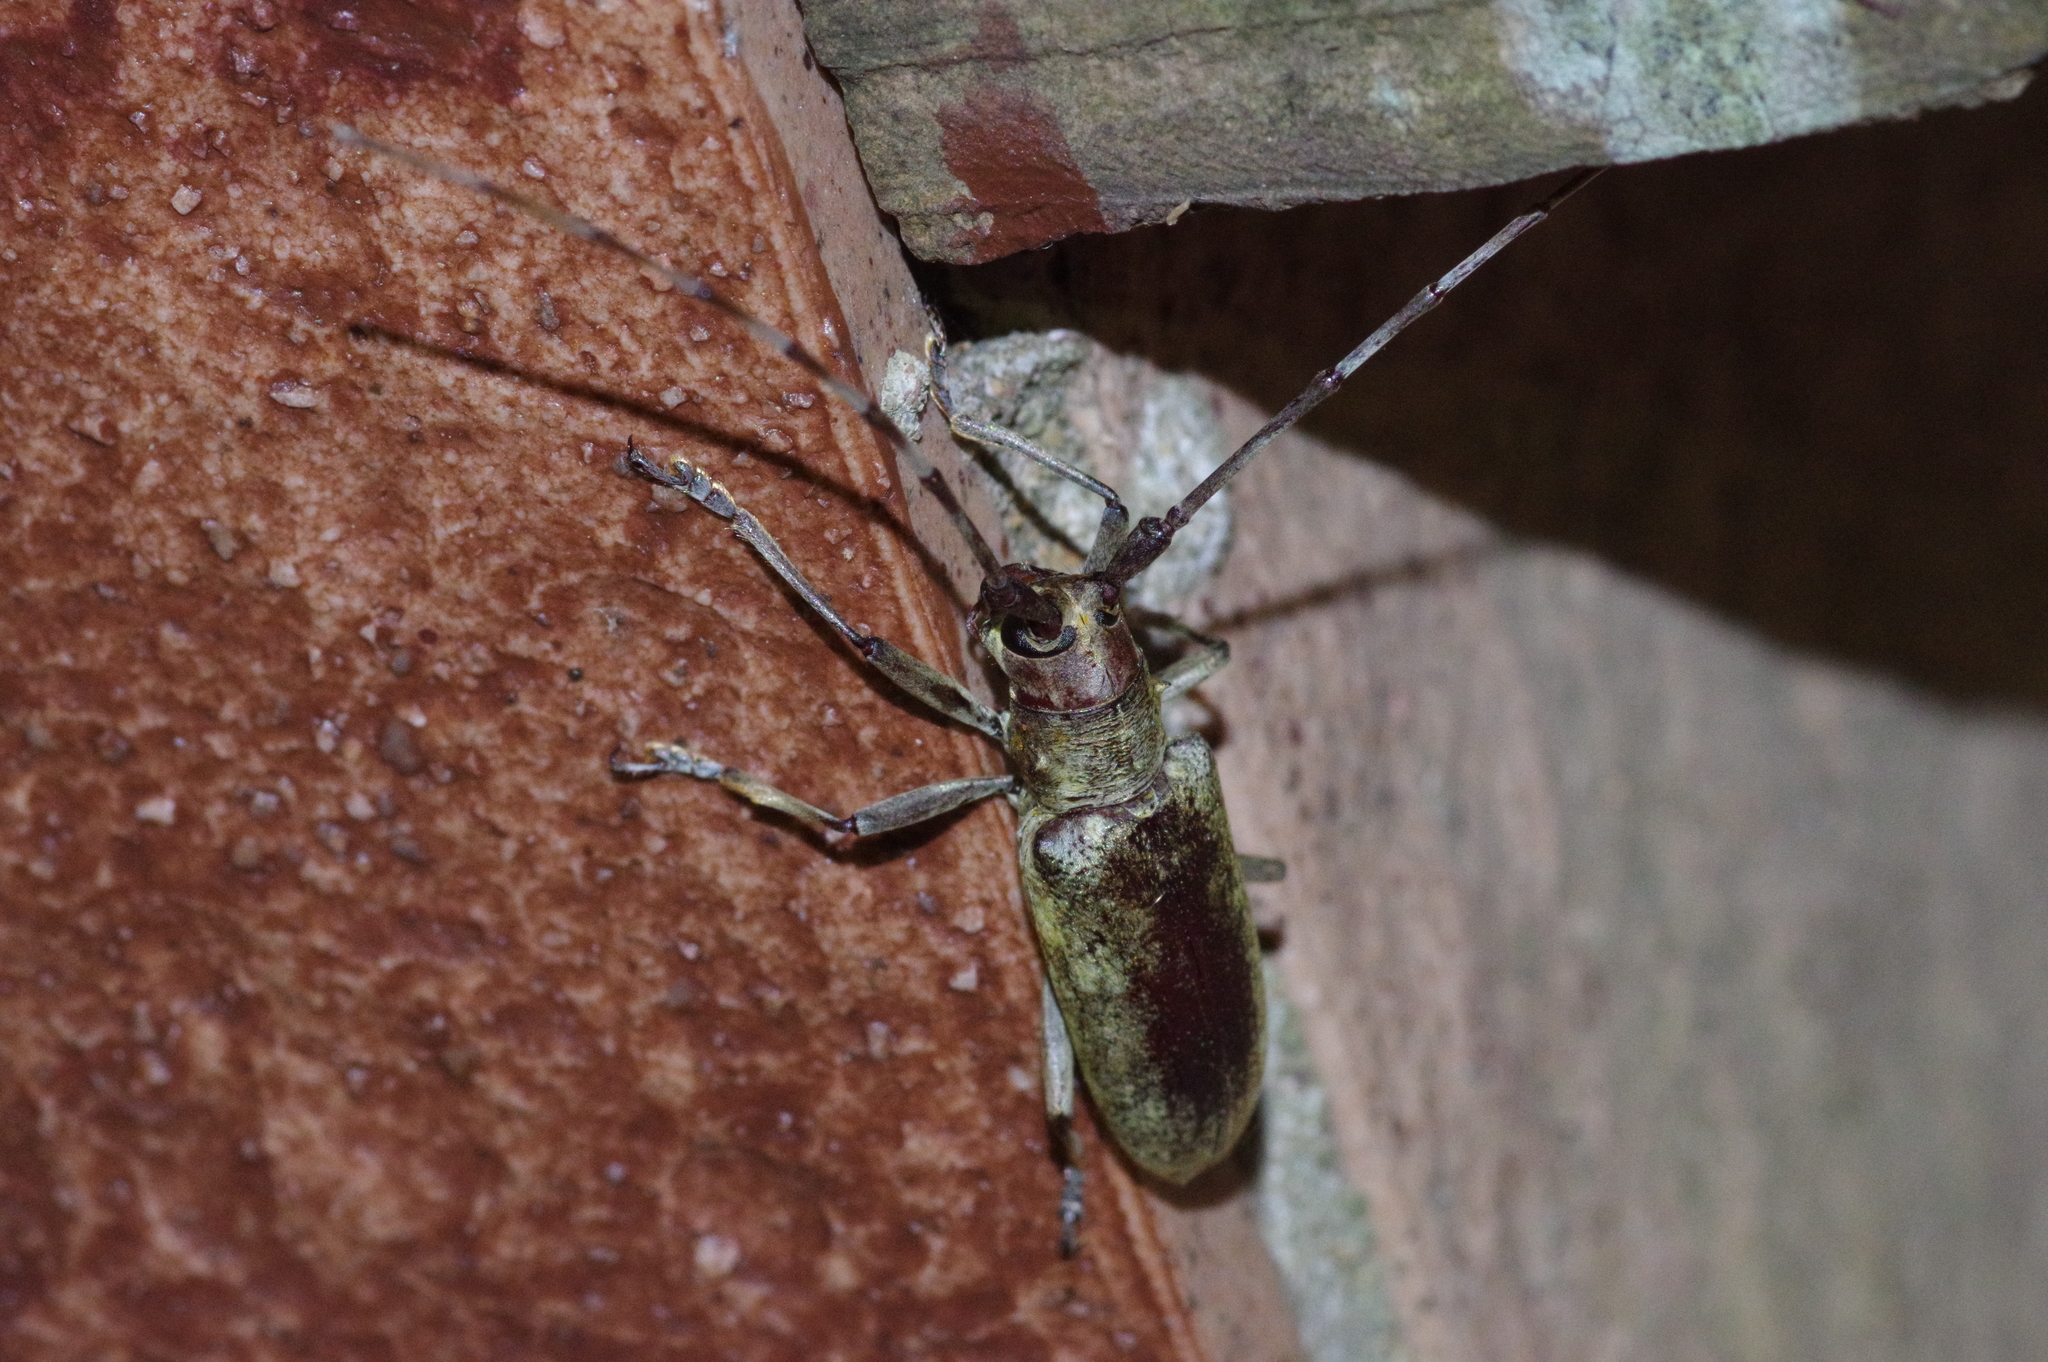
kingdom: Animalia
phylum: Arthropoda
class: Insecta
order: Coleoptera
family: Cerambycidae
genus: Psacothea
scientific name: Psacothea hilaris
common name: Yellow-spotted longicorn beetle
